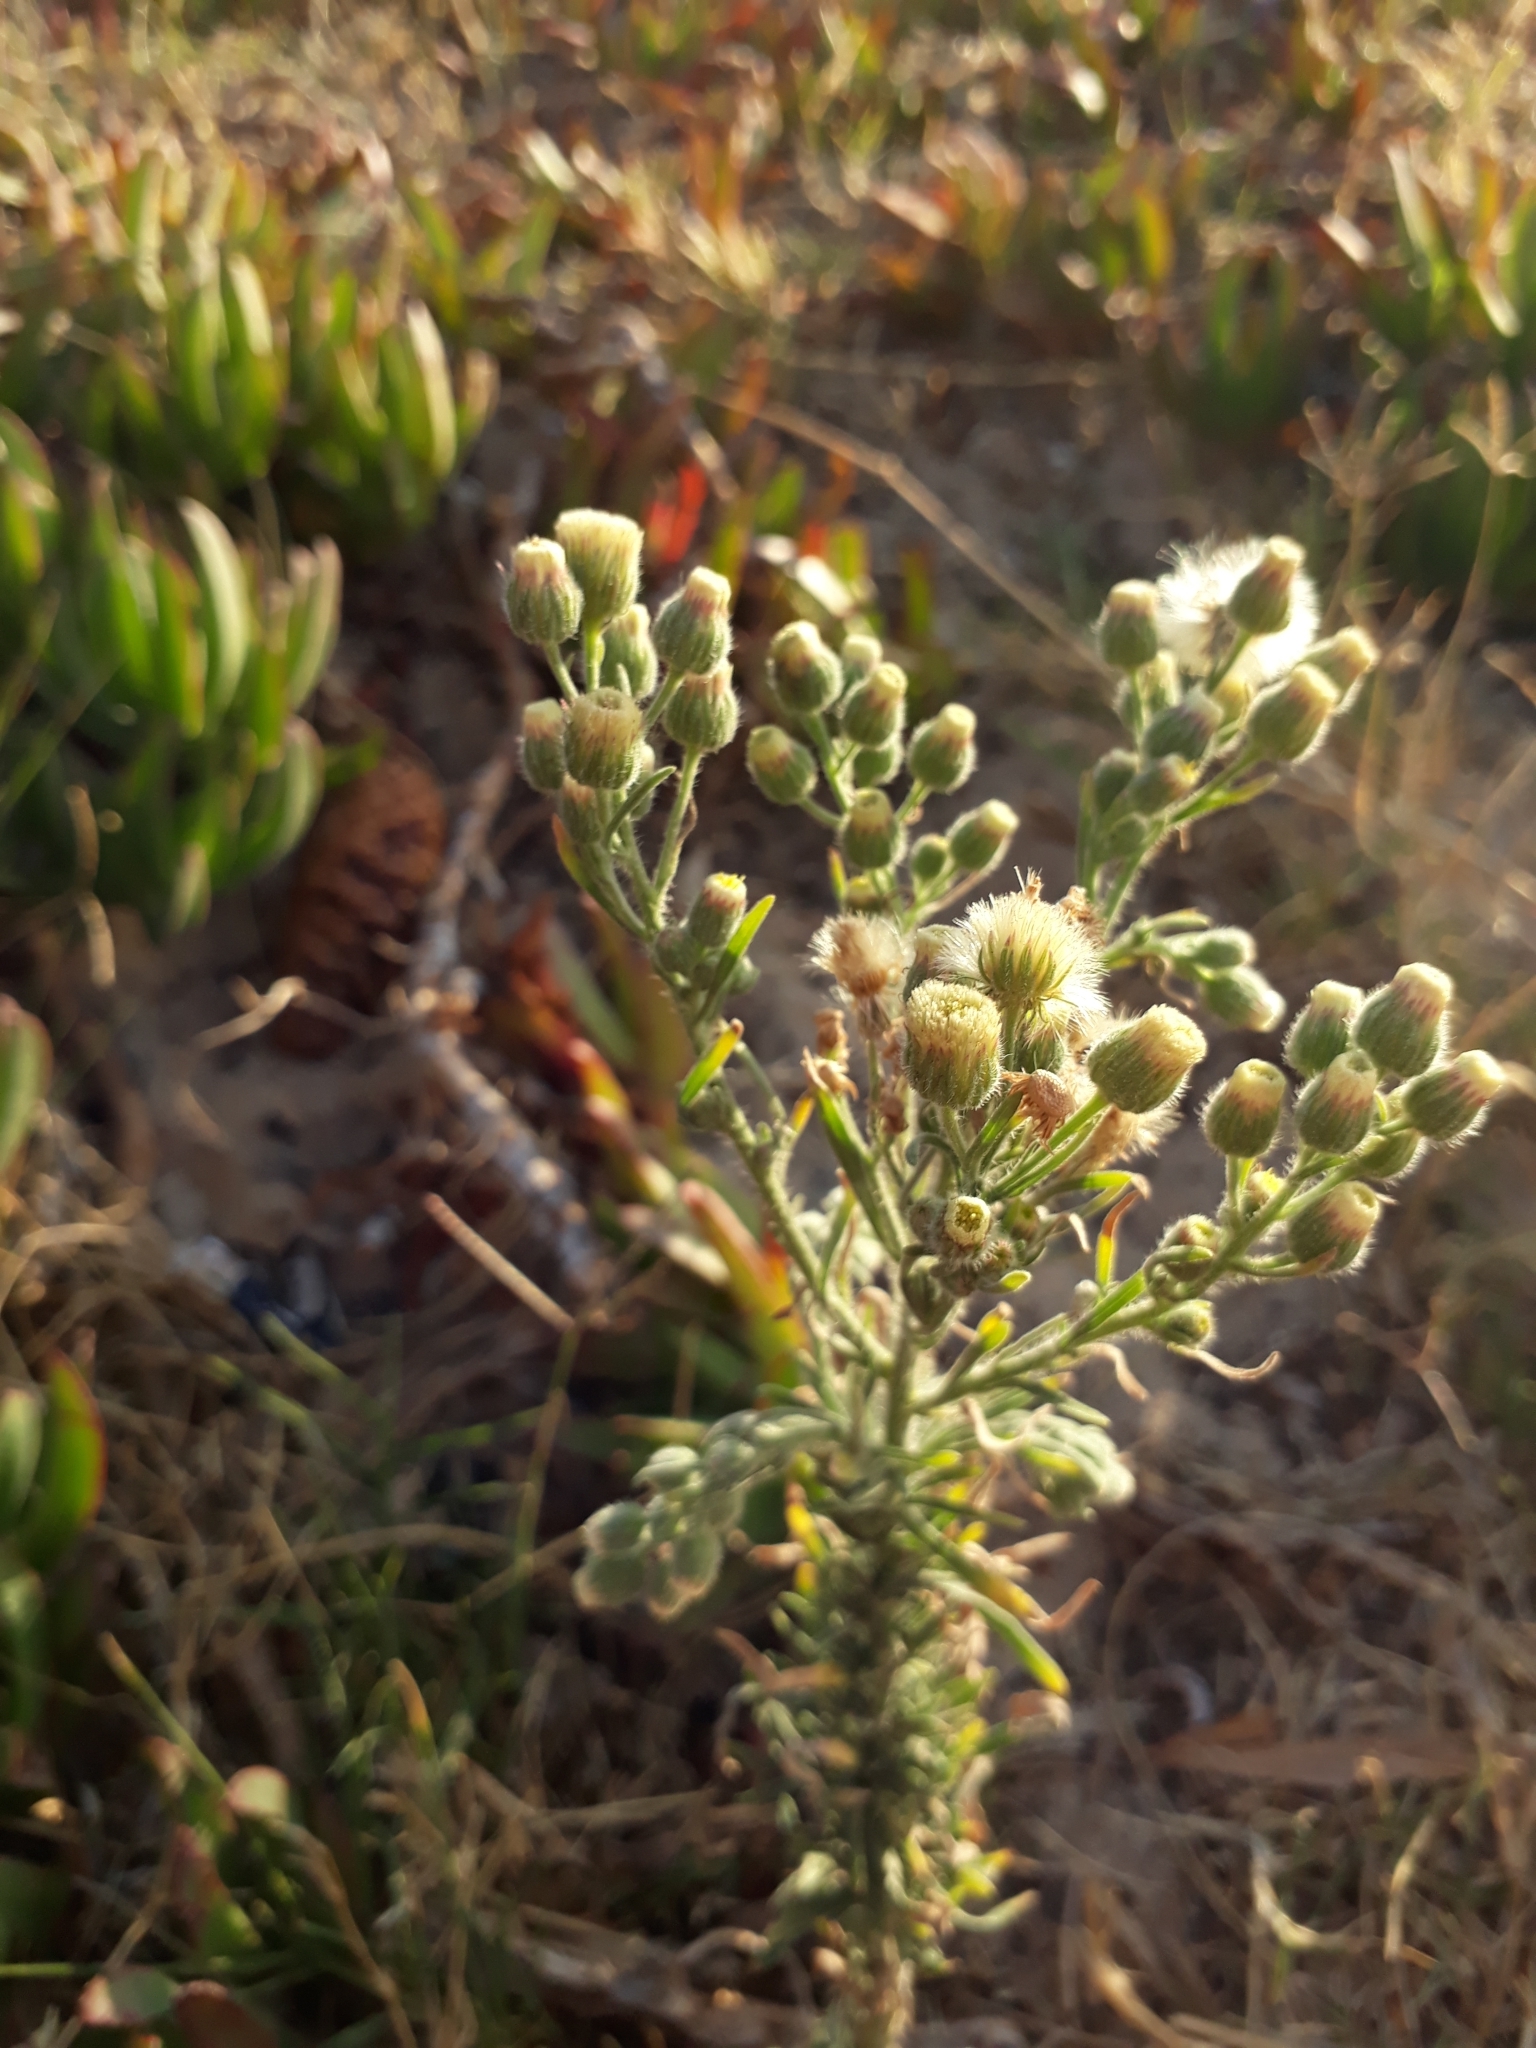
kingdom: Plantae
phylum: Tracheophyta
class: Magnoliopsida
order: Asterales
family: Asteraceae
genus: Erigeron
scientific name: Erigeron bonariensis
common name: Argentine fleabane
